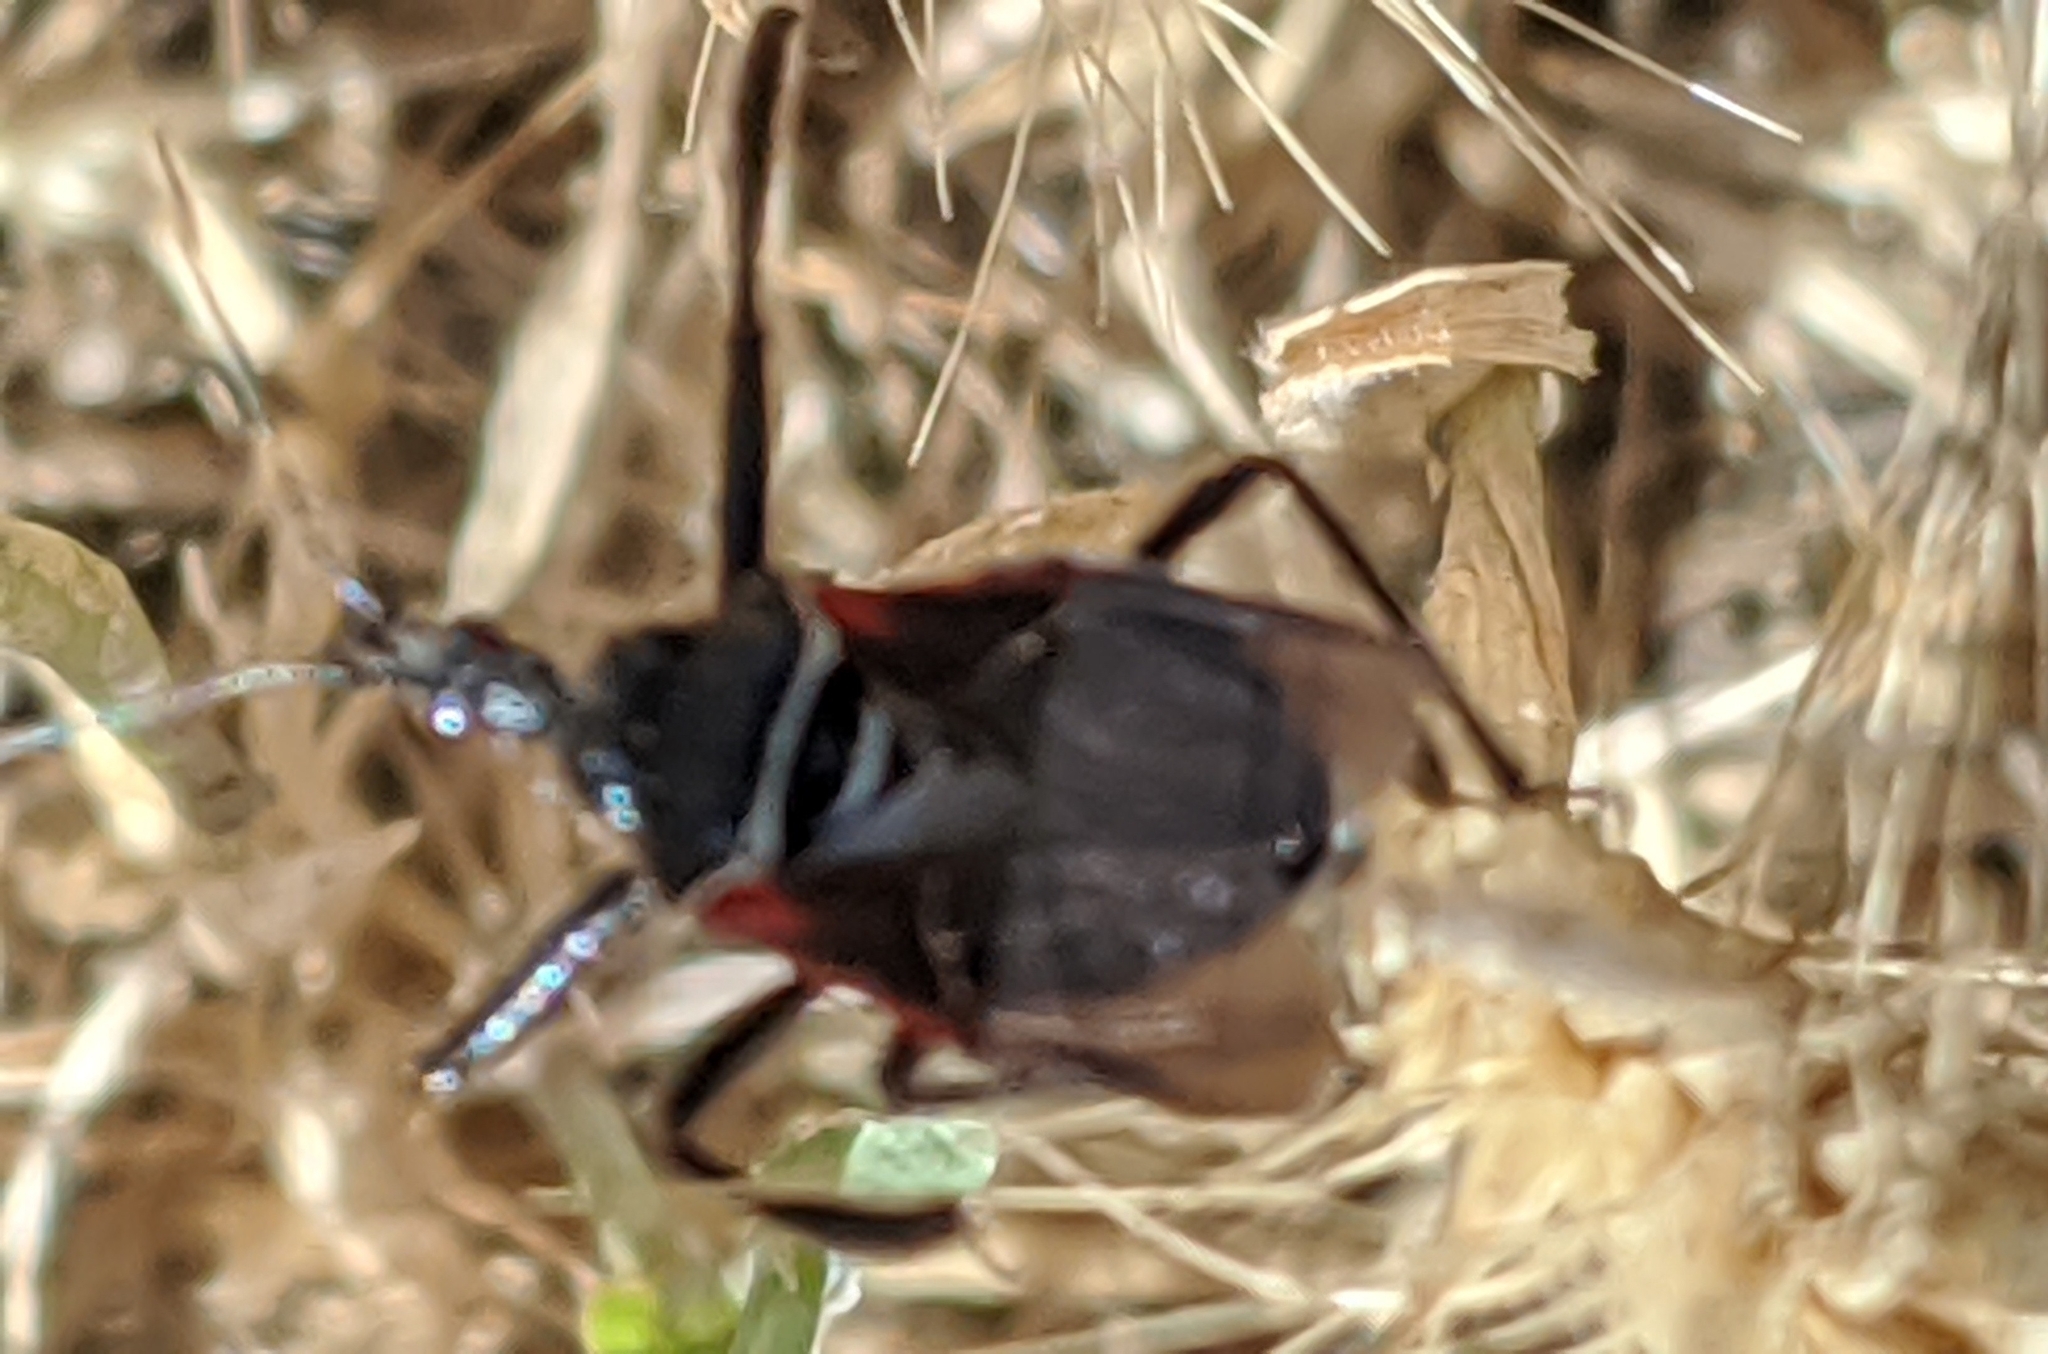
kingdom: Animalia
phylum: Arthropoda
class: Insecta
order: Hemiptera
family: Reduviidae
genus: Apiomerus
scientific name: Apiomerus californicus
